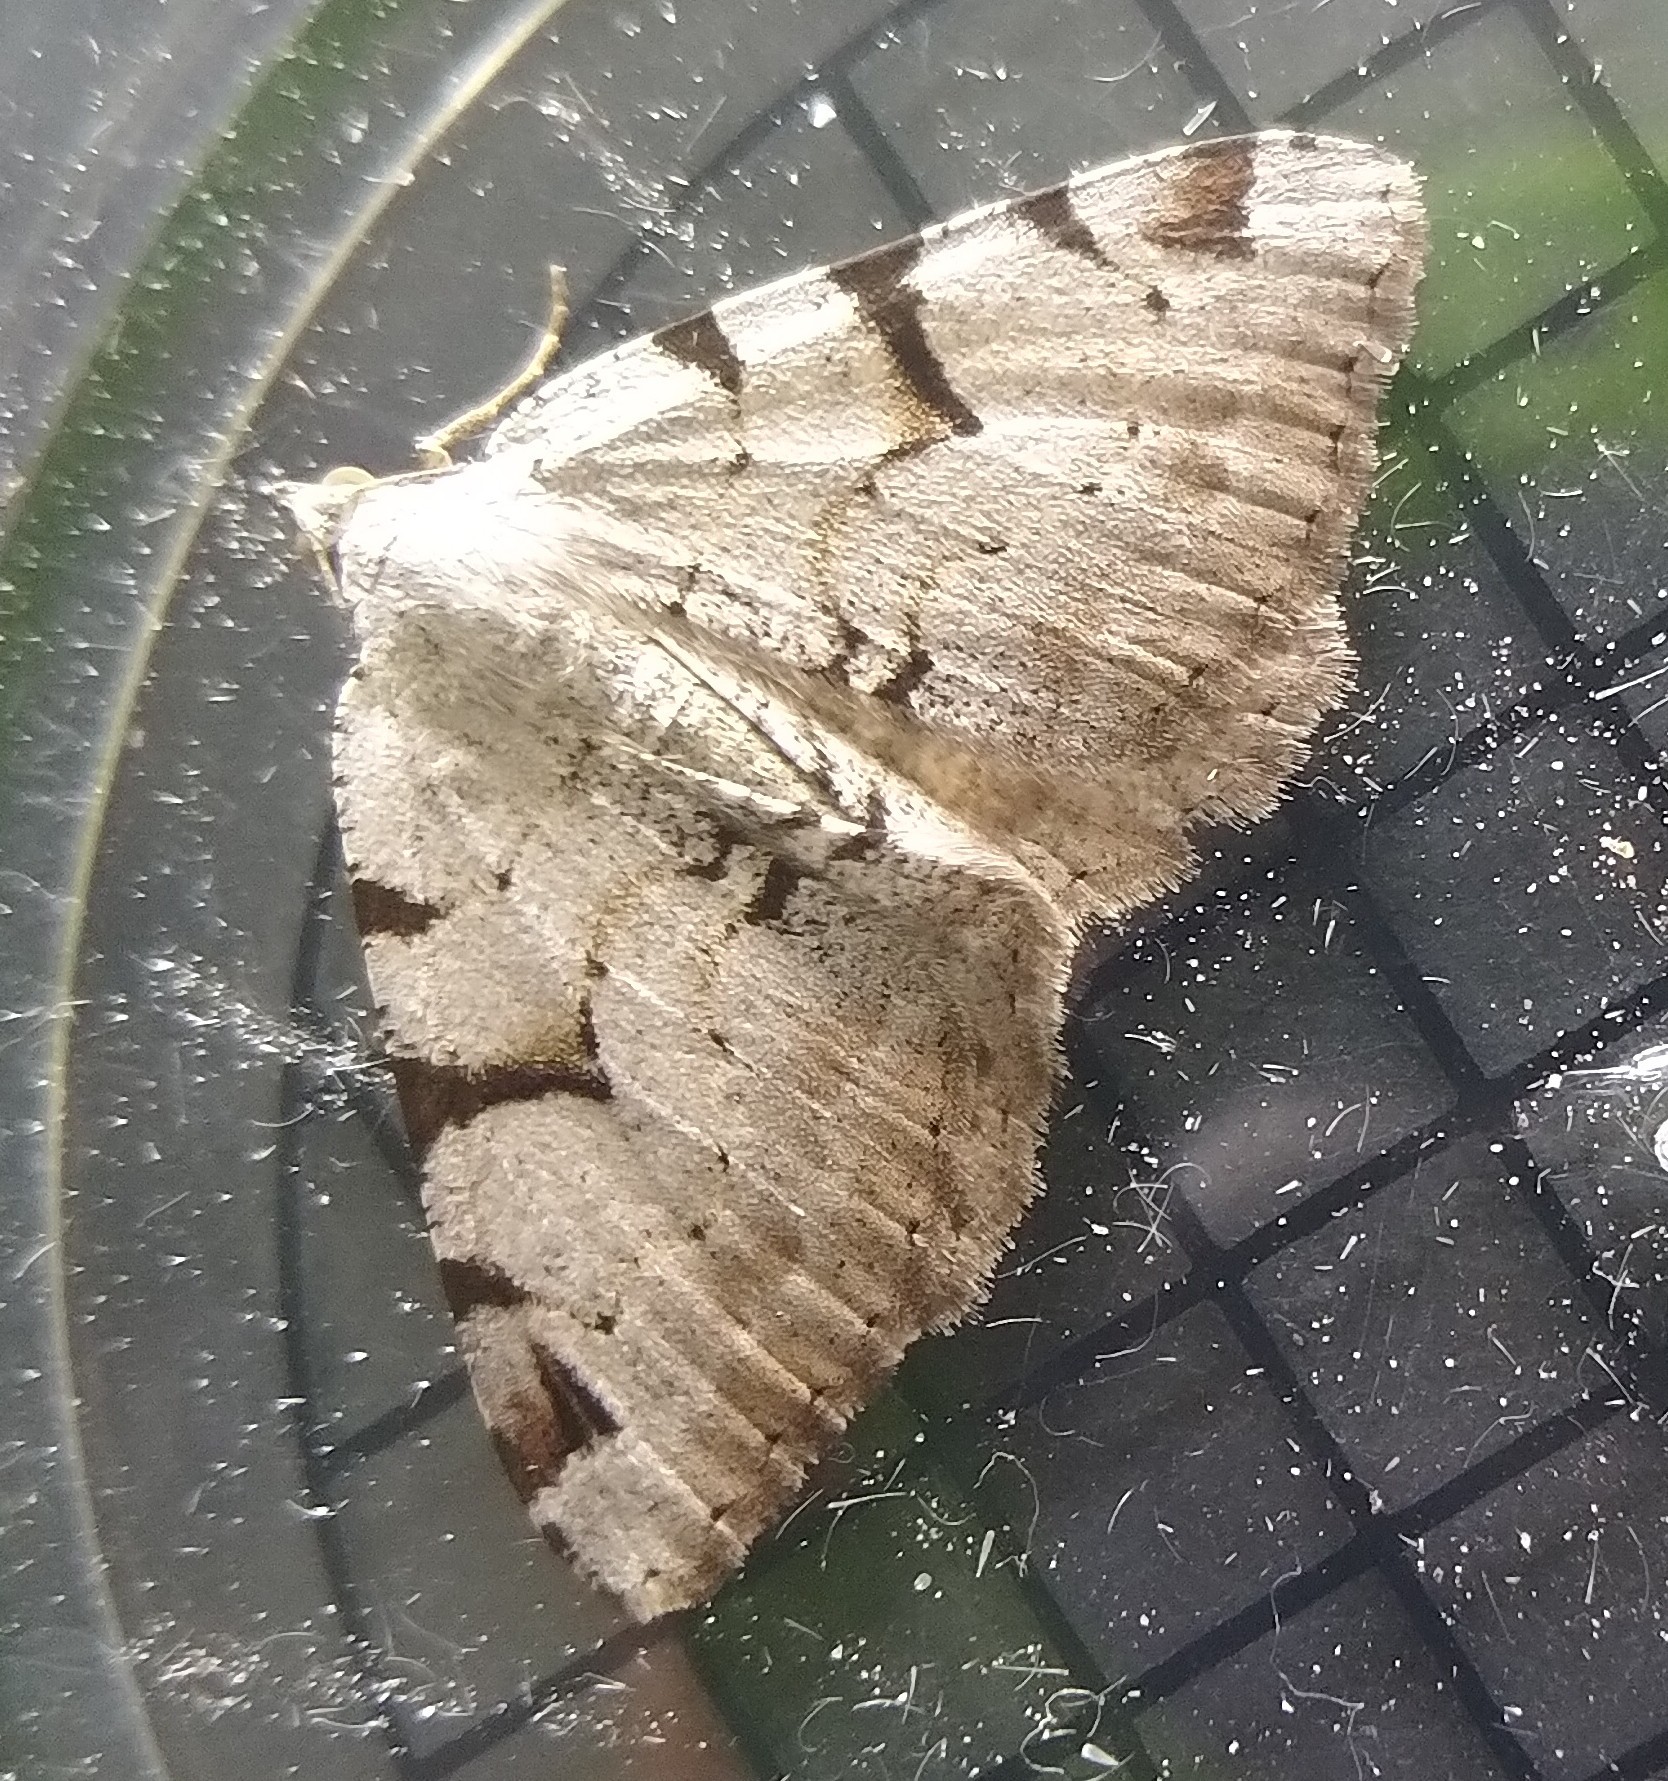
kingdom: Animalia
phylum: Arthropoda
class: Insecta
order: Lepidoptera
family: Geometridae
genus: Macaria
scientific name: Macaria wauaria
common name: V-moth
